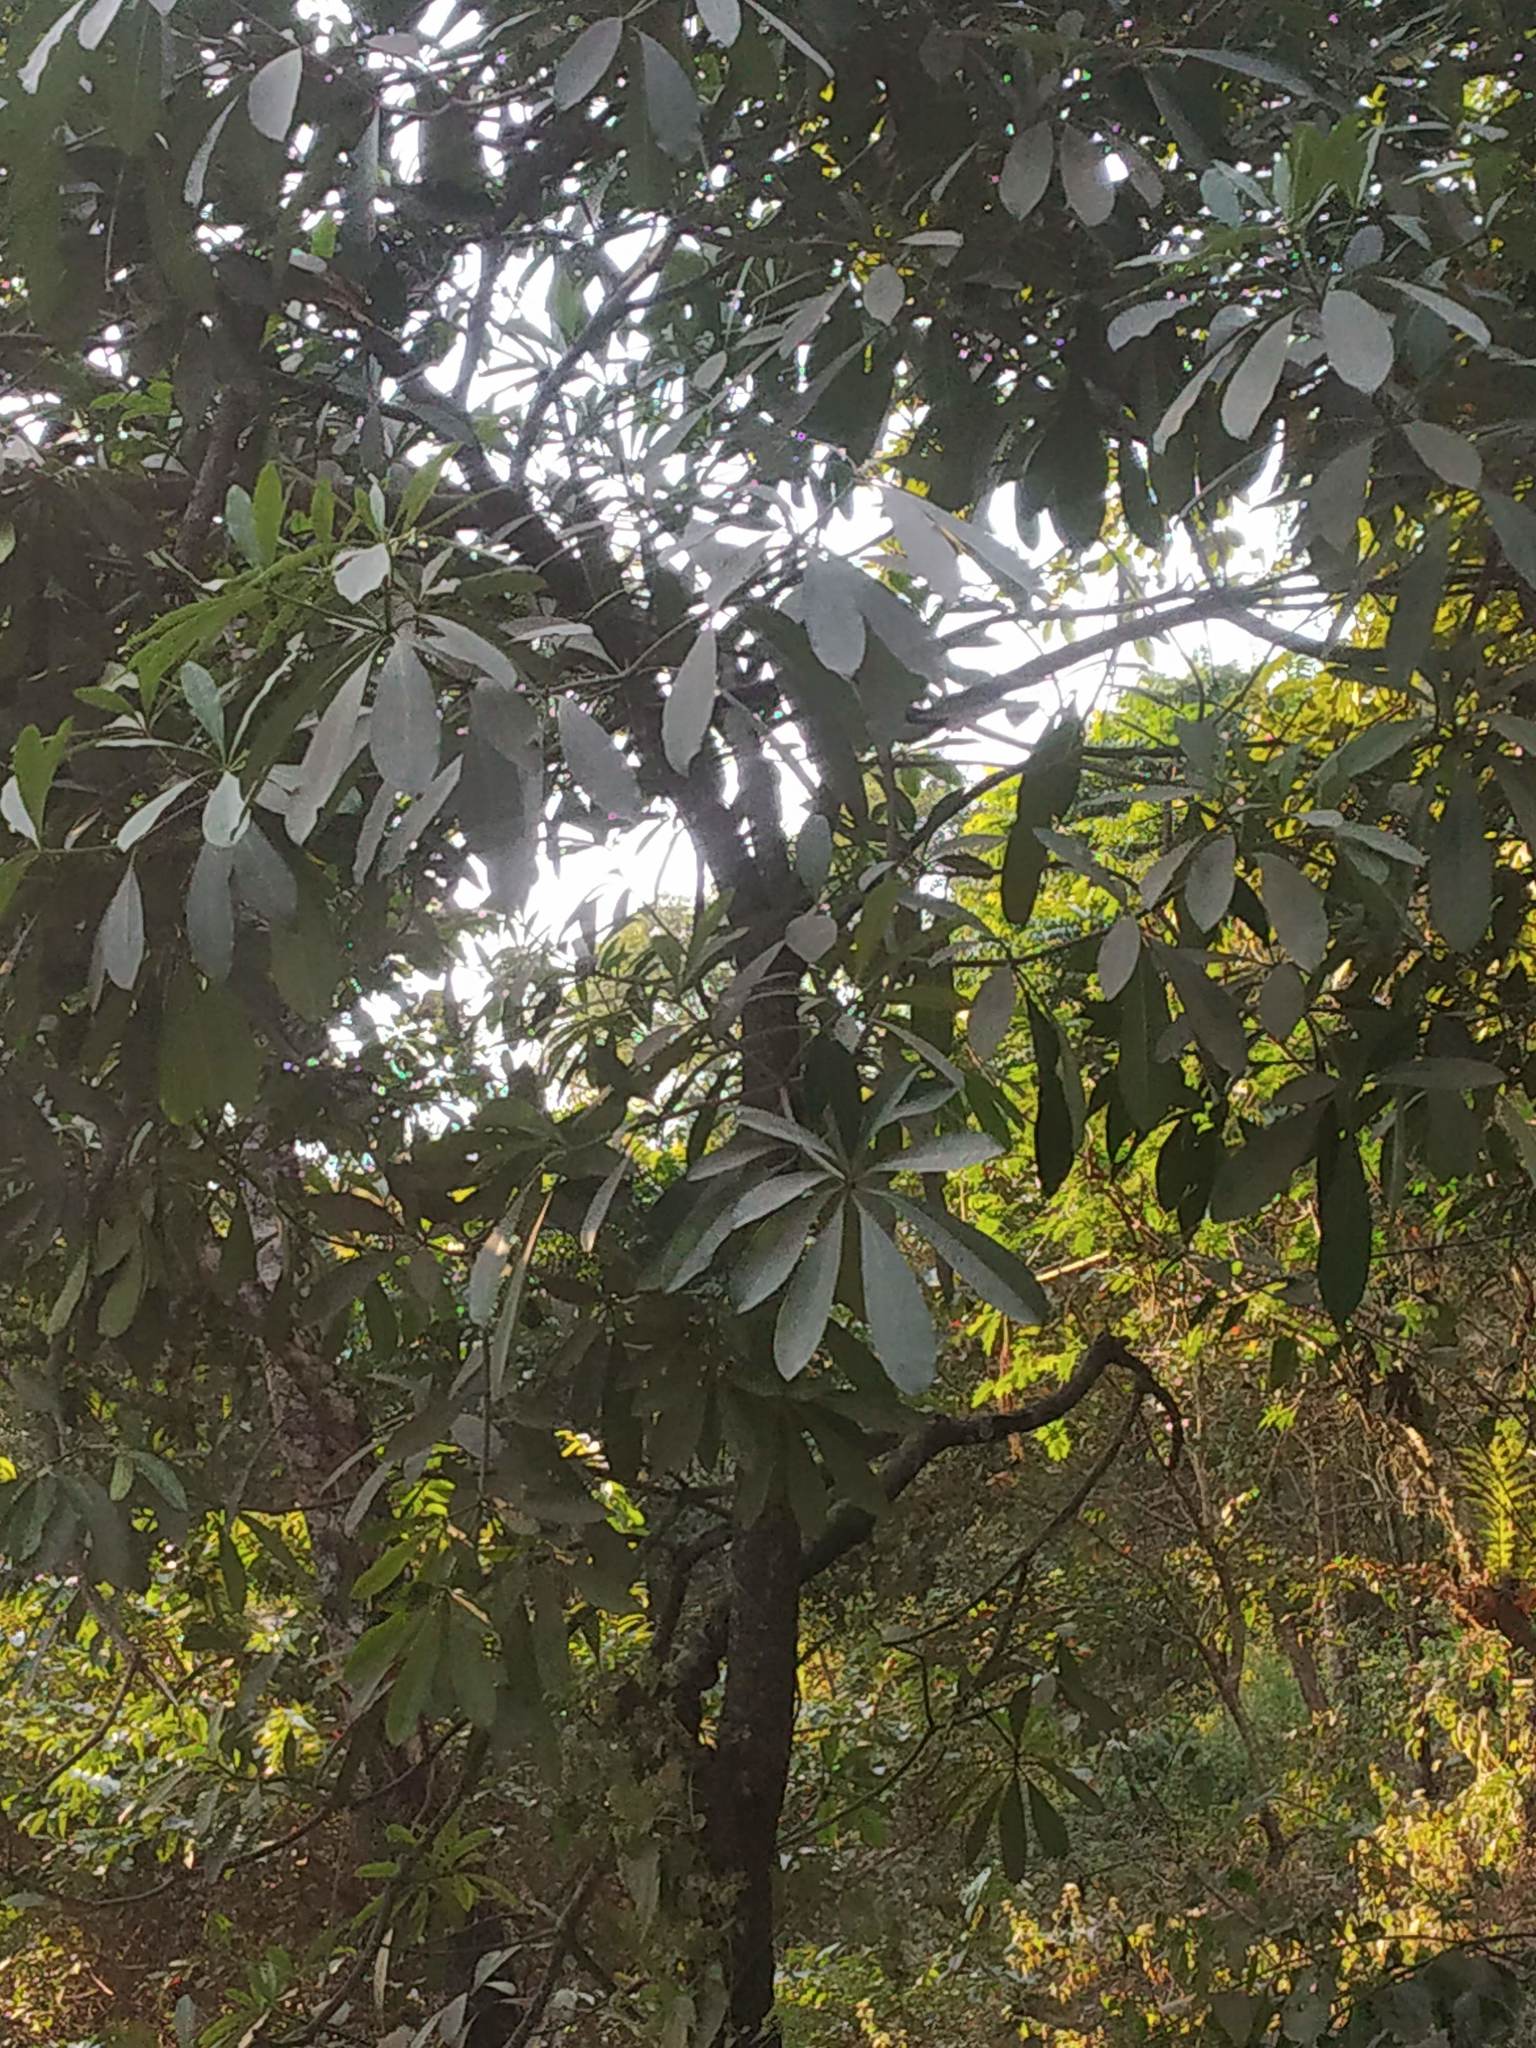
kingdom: Plantae
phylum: Tracheophyta
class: Magnoliopsida
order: Gentianales
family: Apocynaceae
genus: Alstonia
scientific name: Alstonia scholaris
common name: White cheesewood
